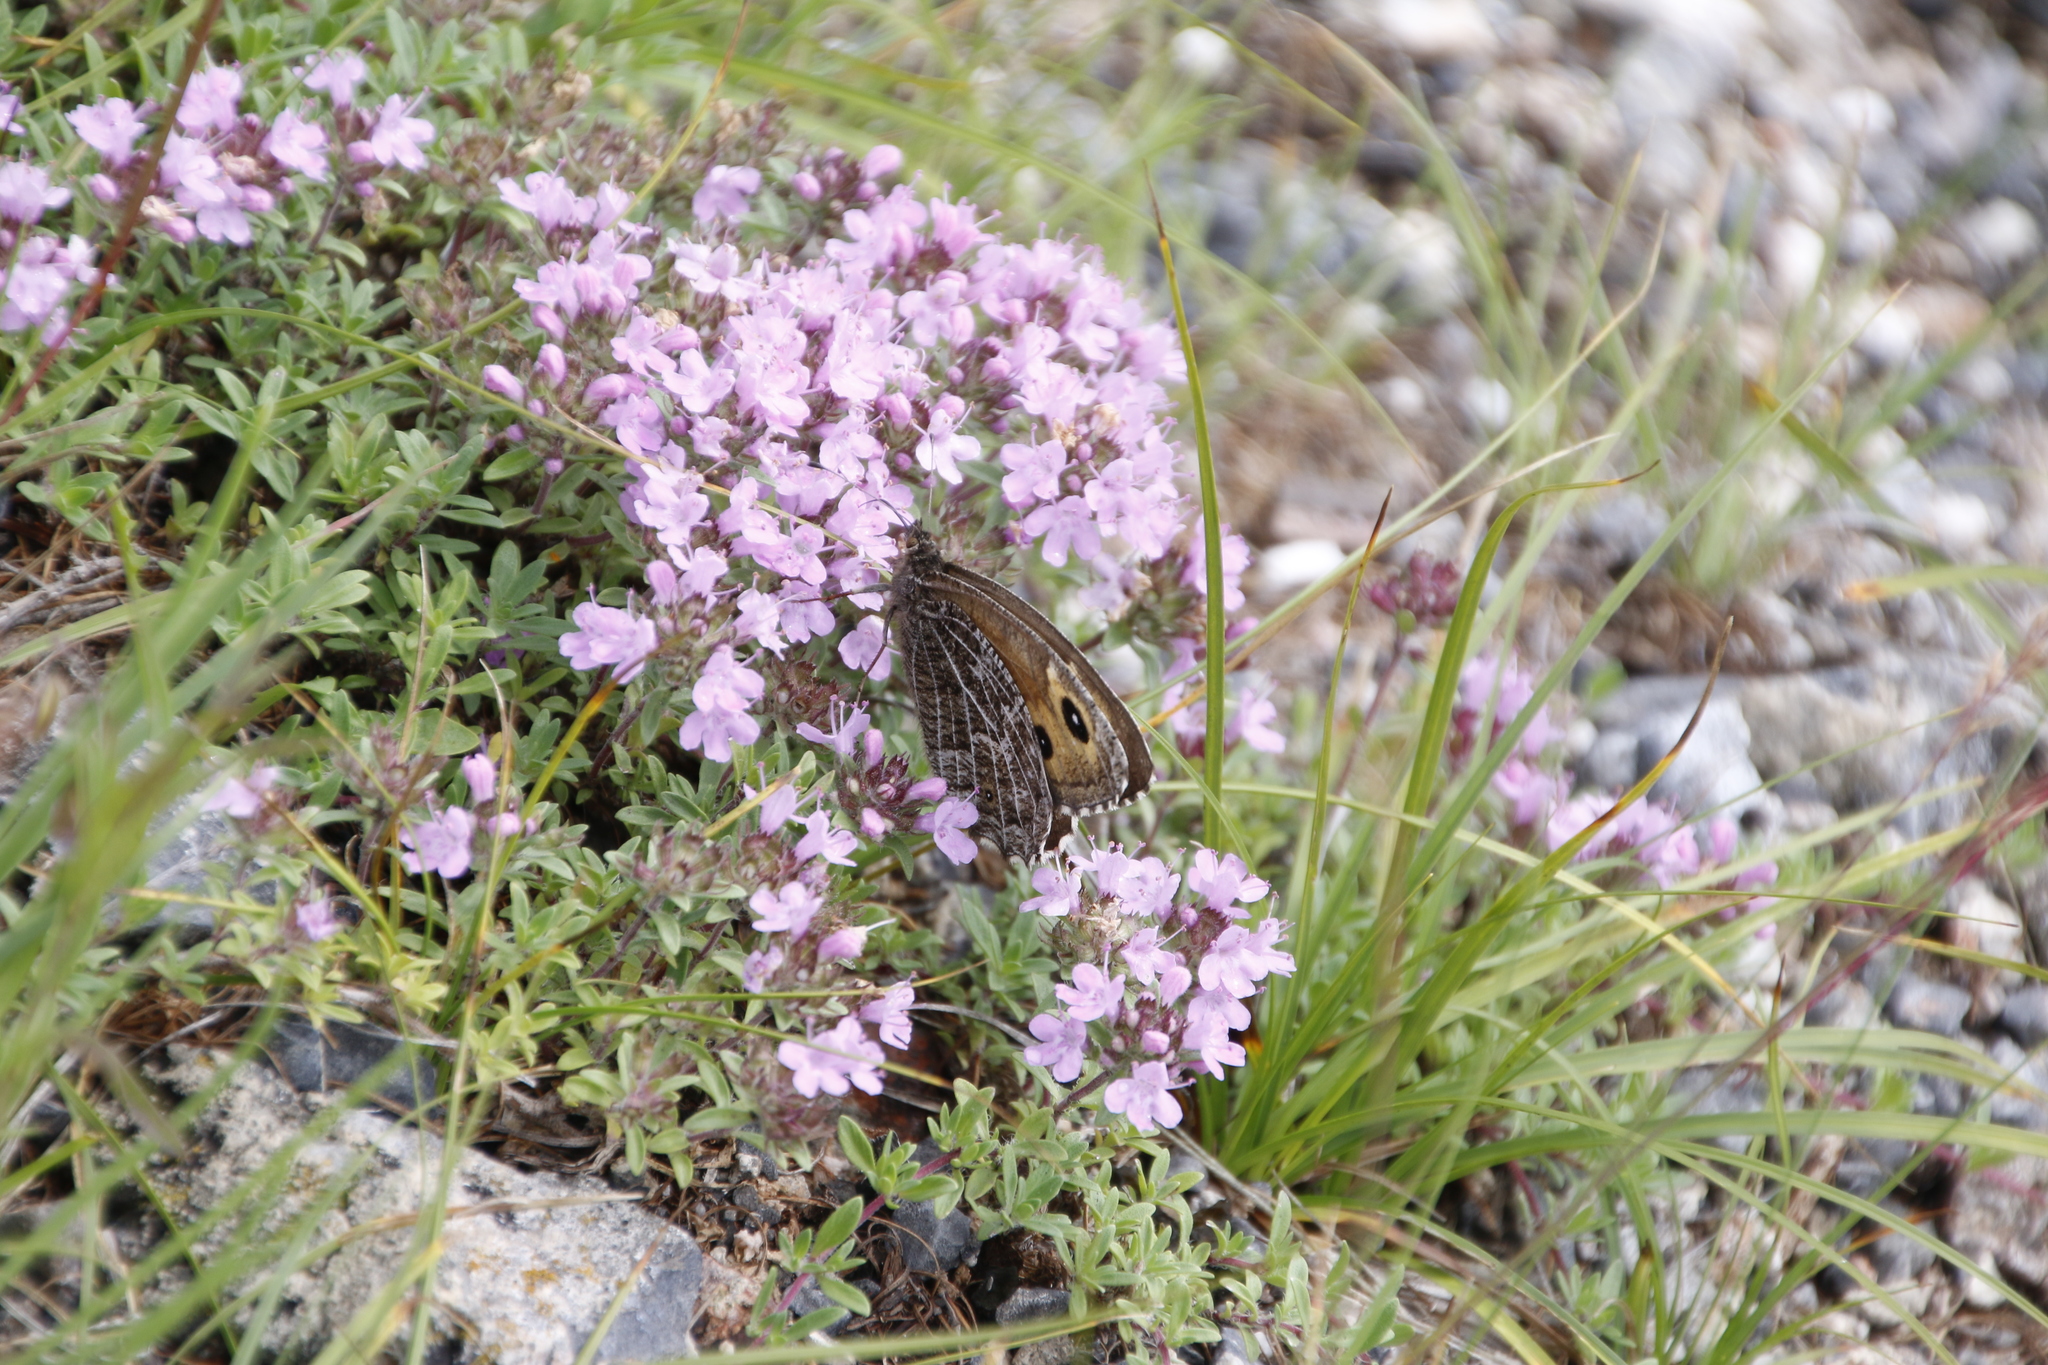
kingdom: Animalia
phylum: Arthropoda
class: Insecta
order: Lepidoptera
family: Nymphalidae
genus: Hipparchia
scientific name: Hipparchia autonoe
